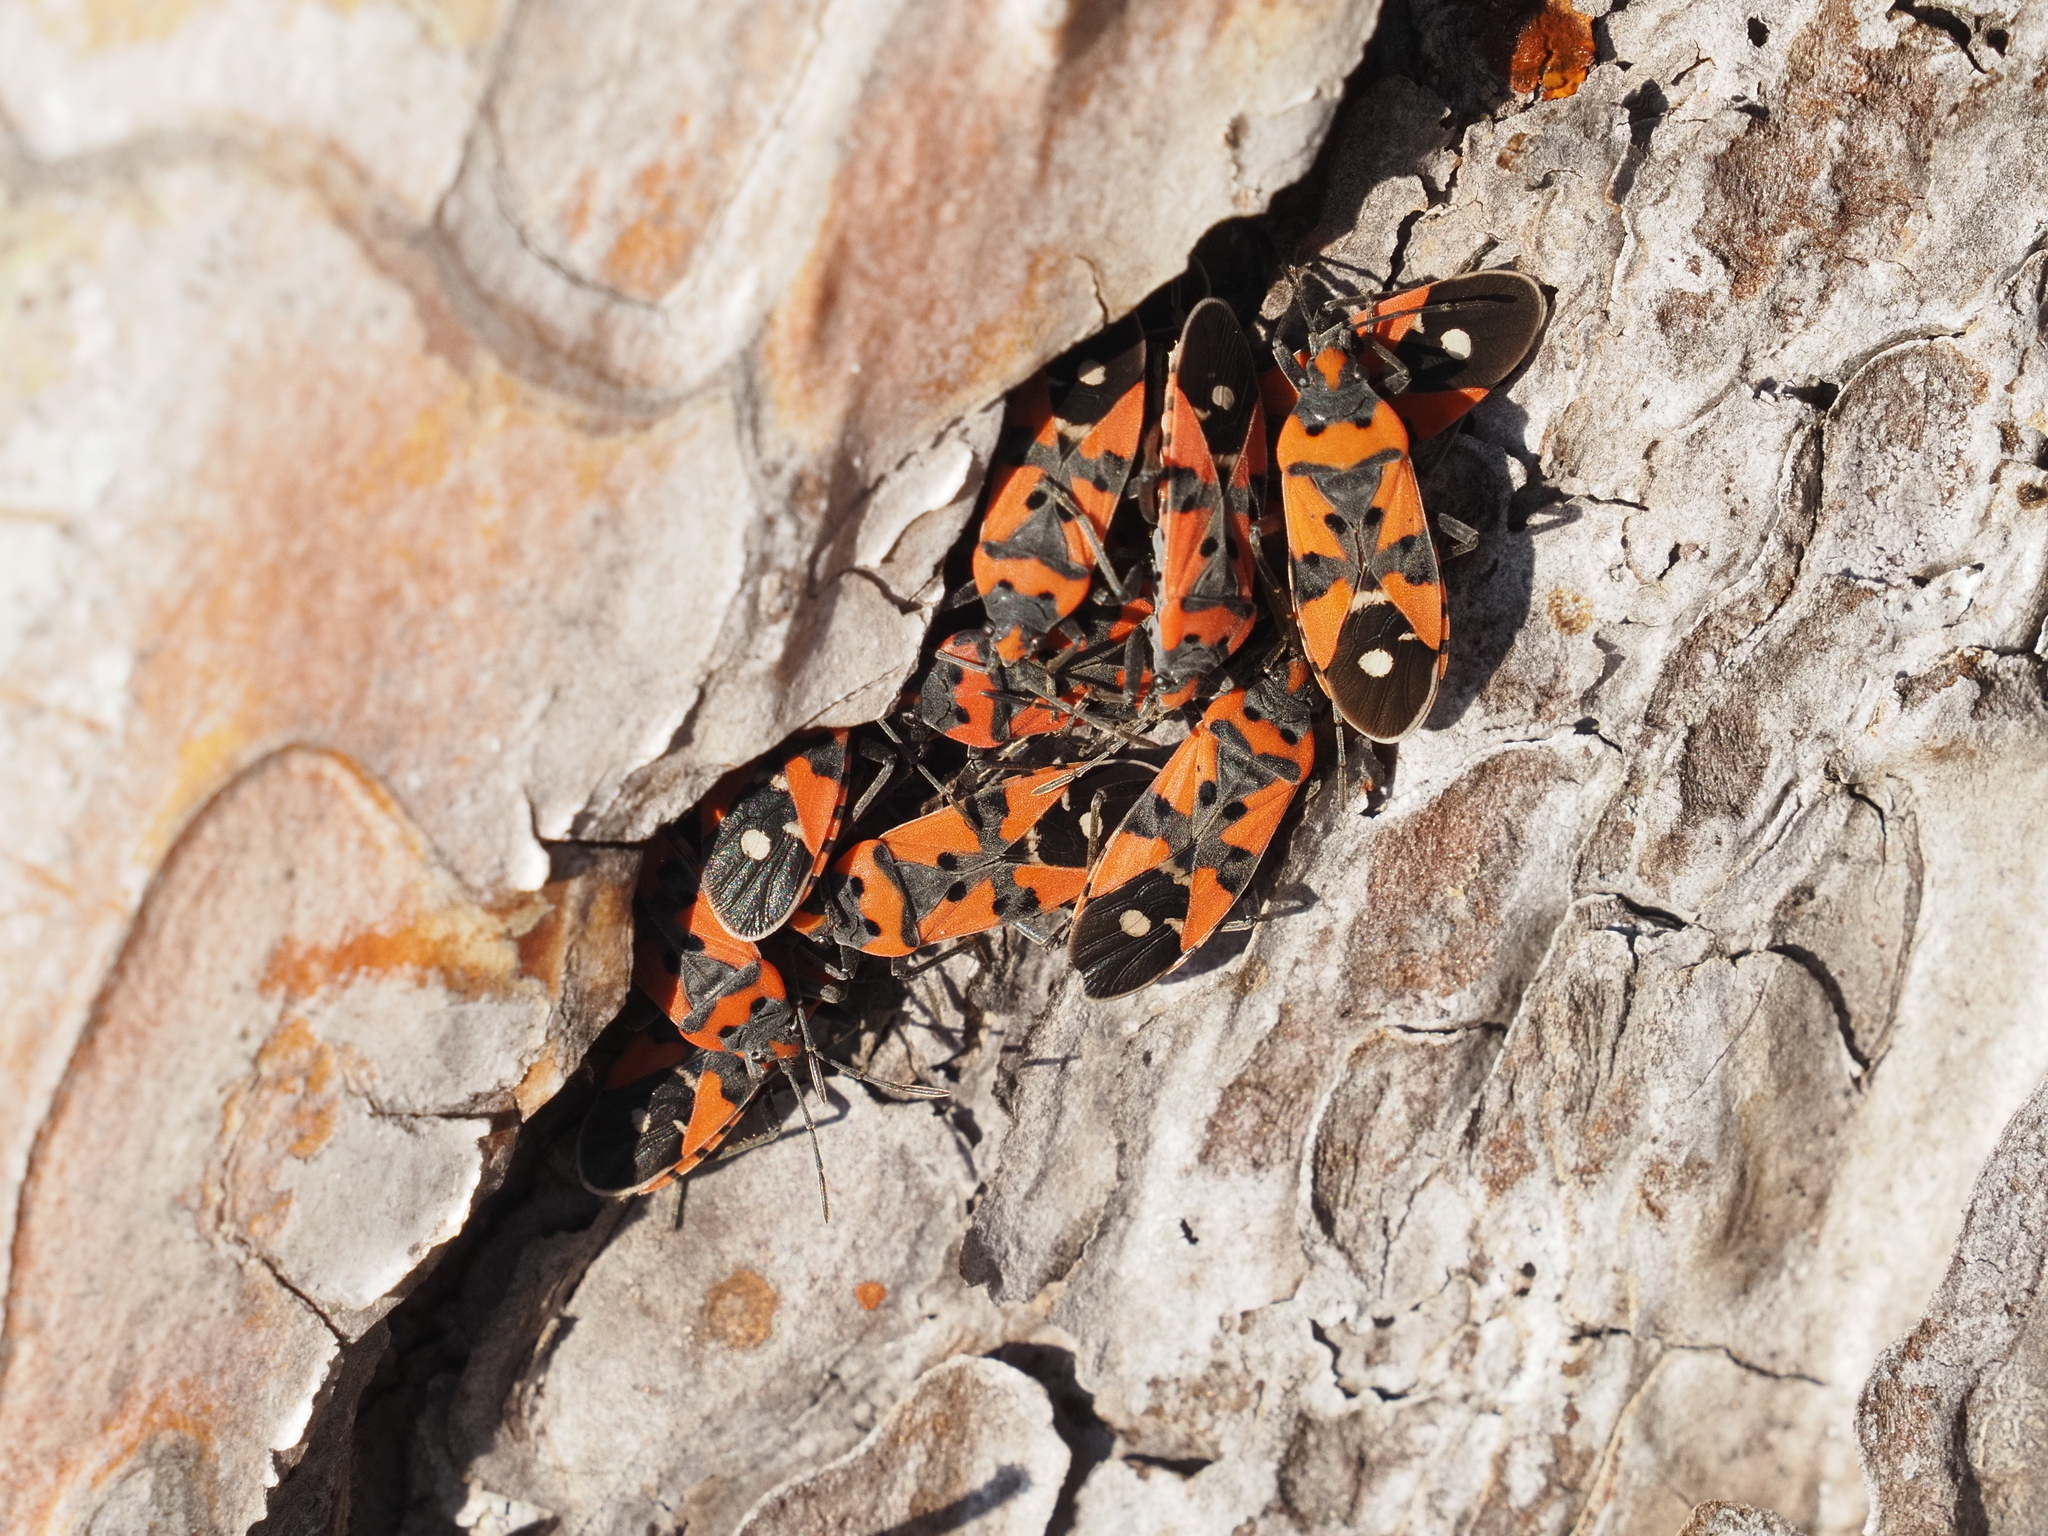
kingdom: Animalia
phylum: Arthropoda
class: Insecta
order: Hemiptera
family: Lygaeidae
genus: Lygaeus
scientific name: Lygaeus equestris
